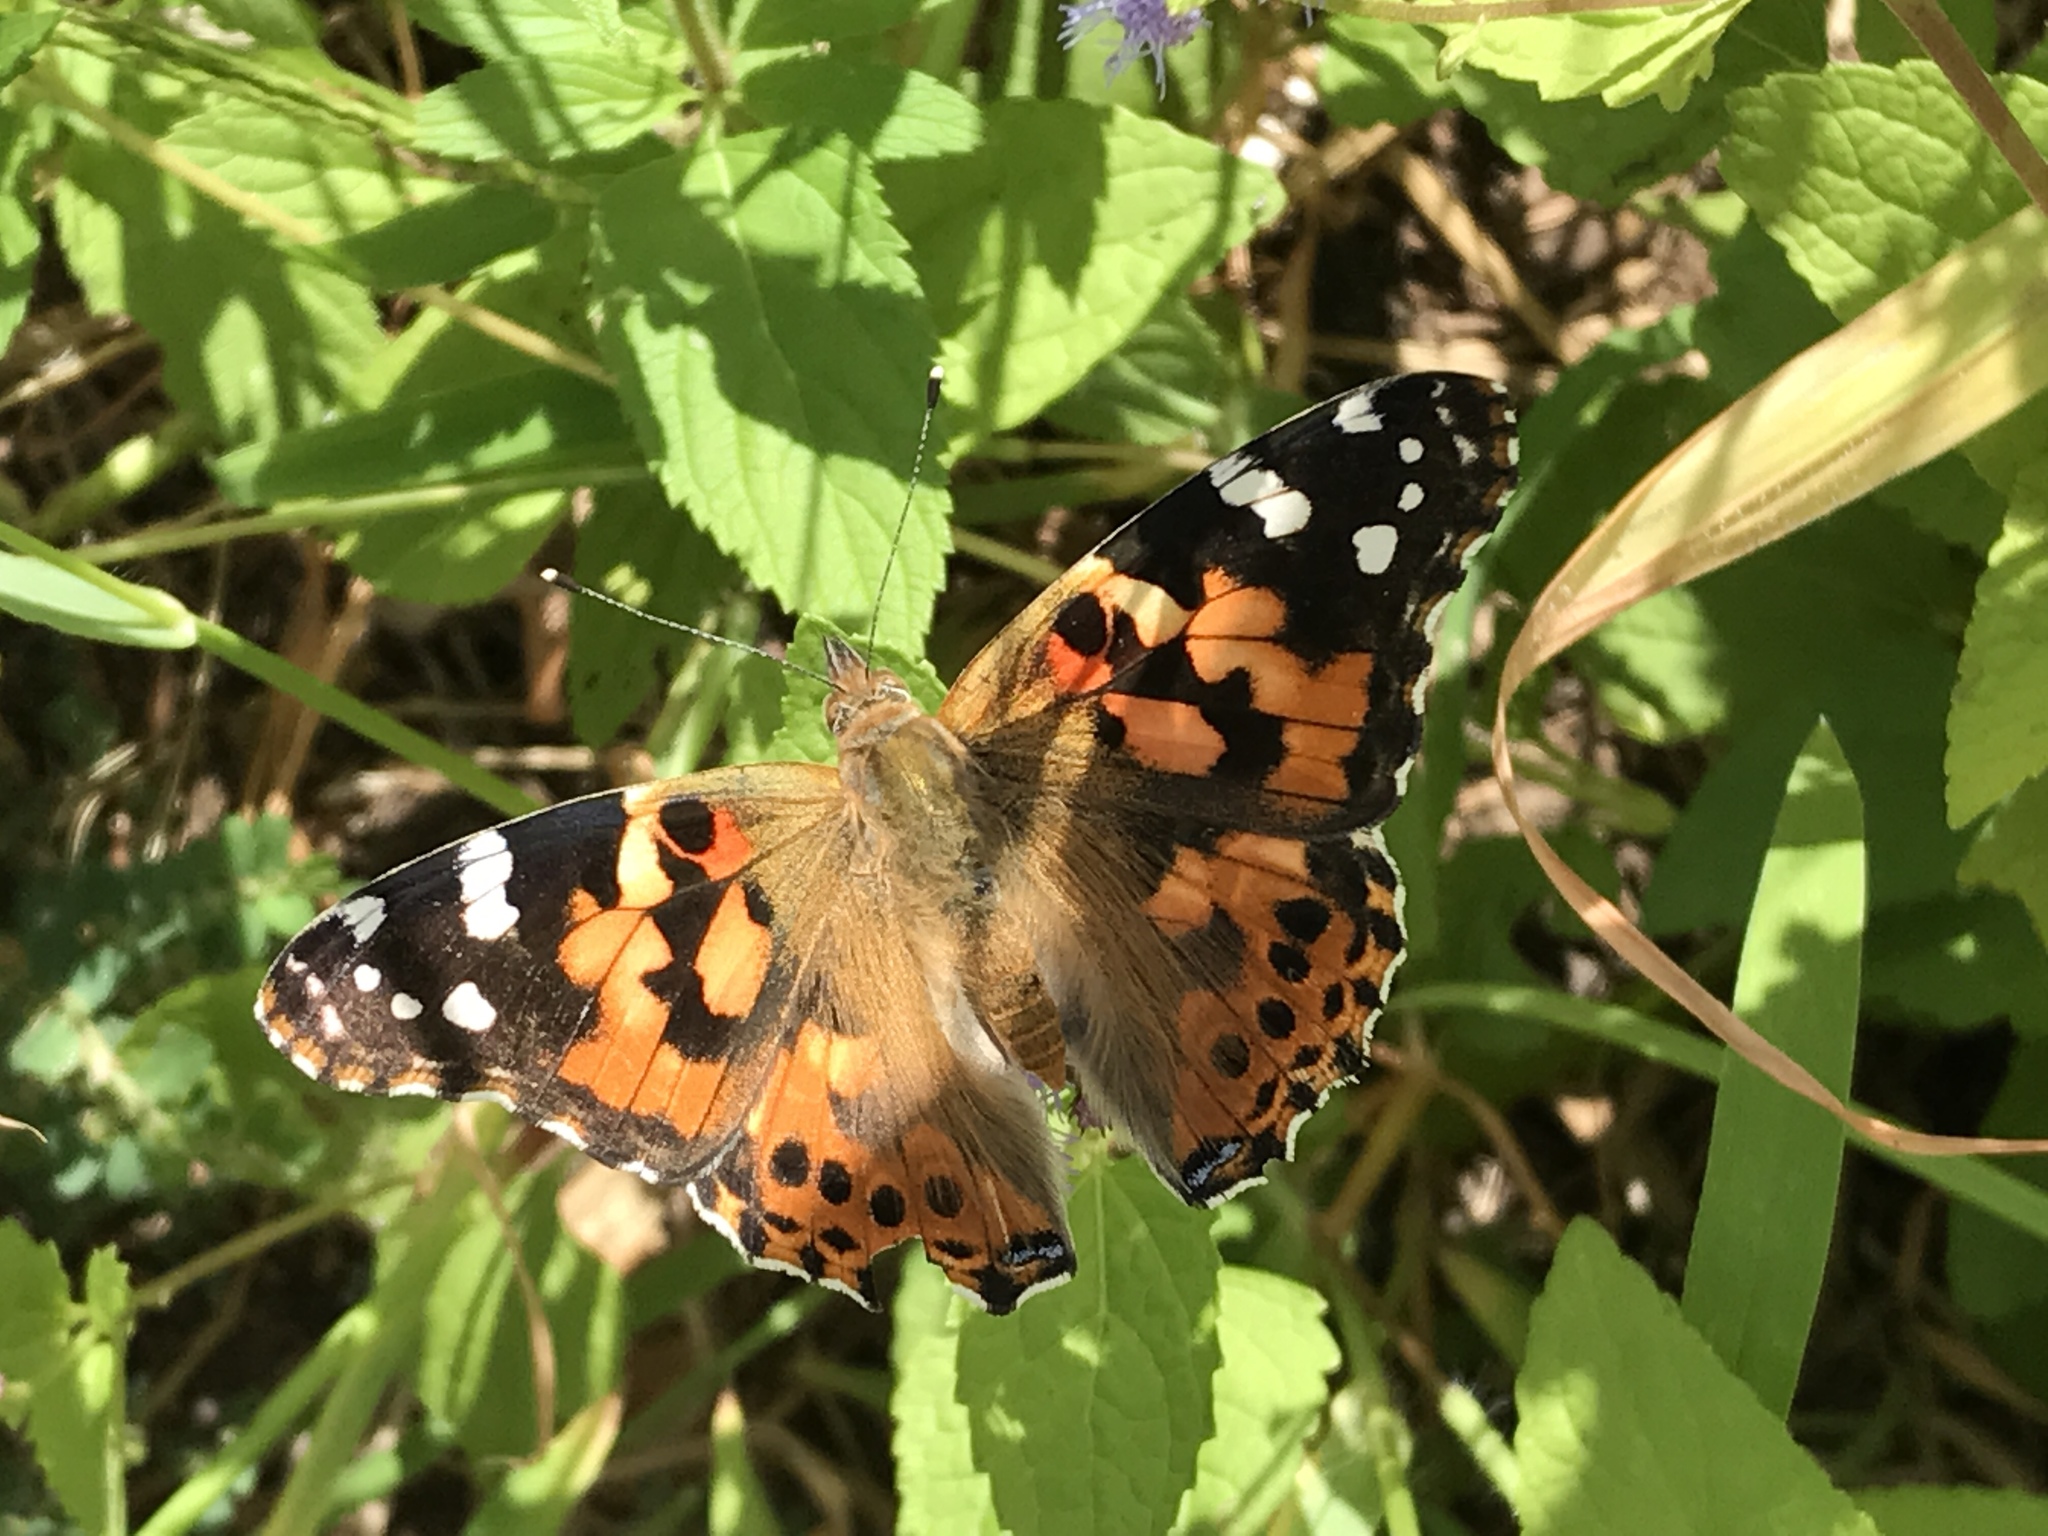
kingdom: Animalia
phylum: Arthropoda
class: Insecta
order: Lepidoptera
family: Nymphalidae
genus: Vanessa
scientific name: Vanessa cardui
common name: Painted lady
